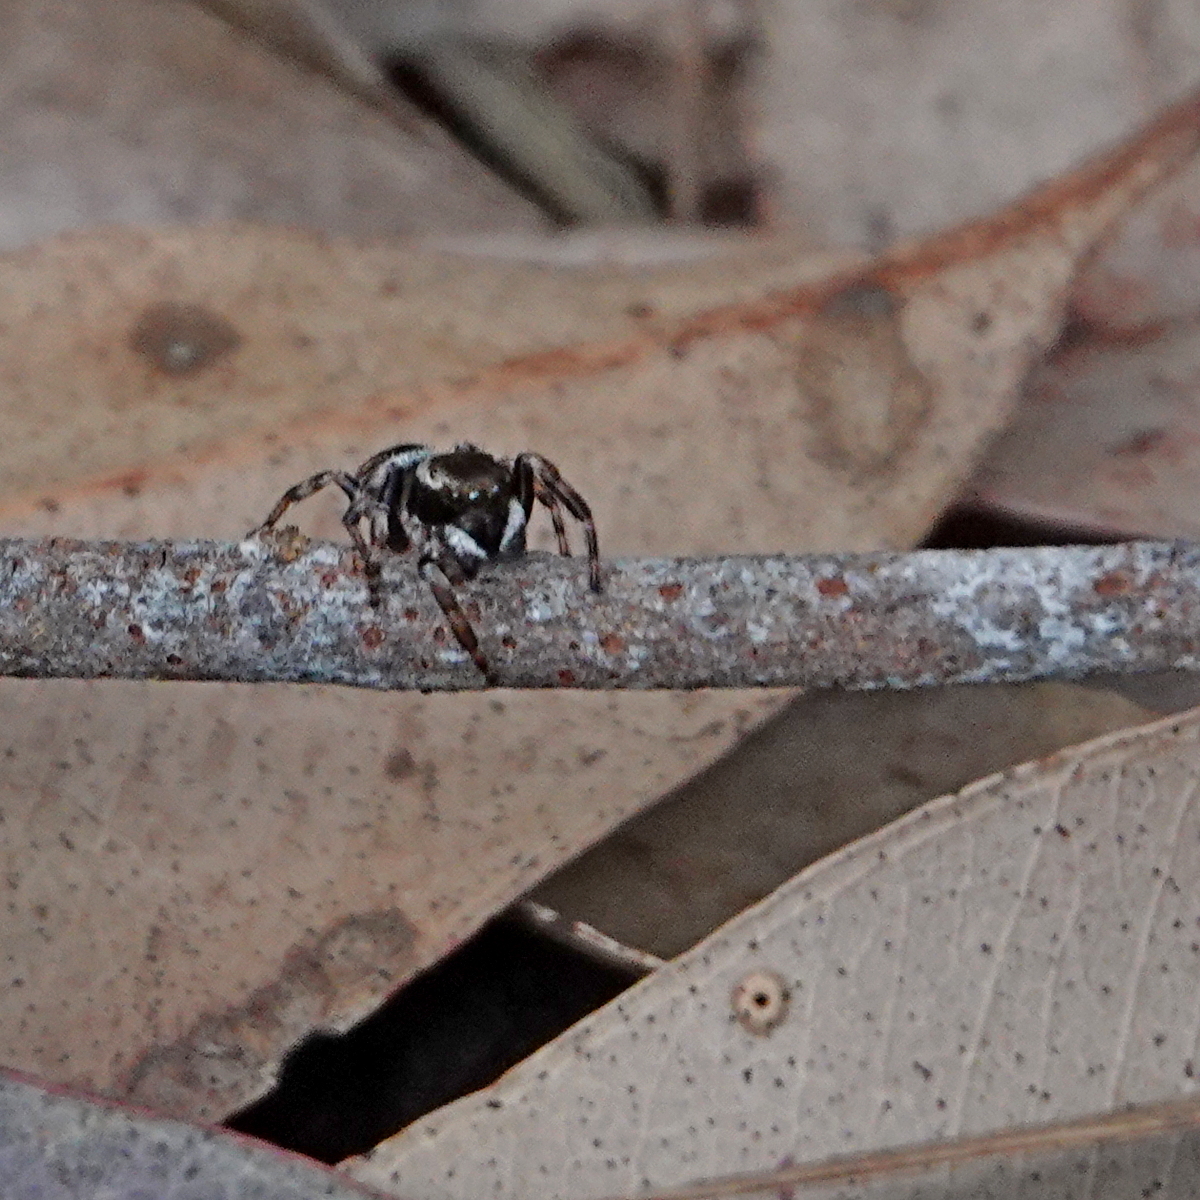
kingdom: Animalia
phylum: Arthropoda
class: Arachnida
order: Araneae
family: Salticidae
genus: Maratus
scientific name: Maratus scutulatus
